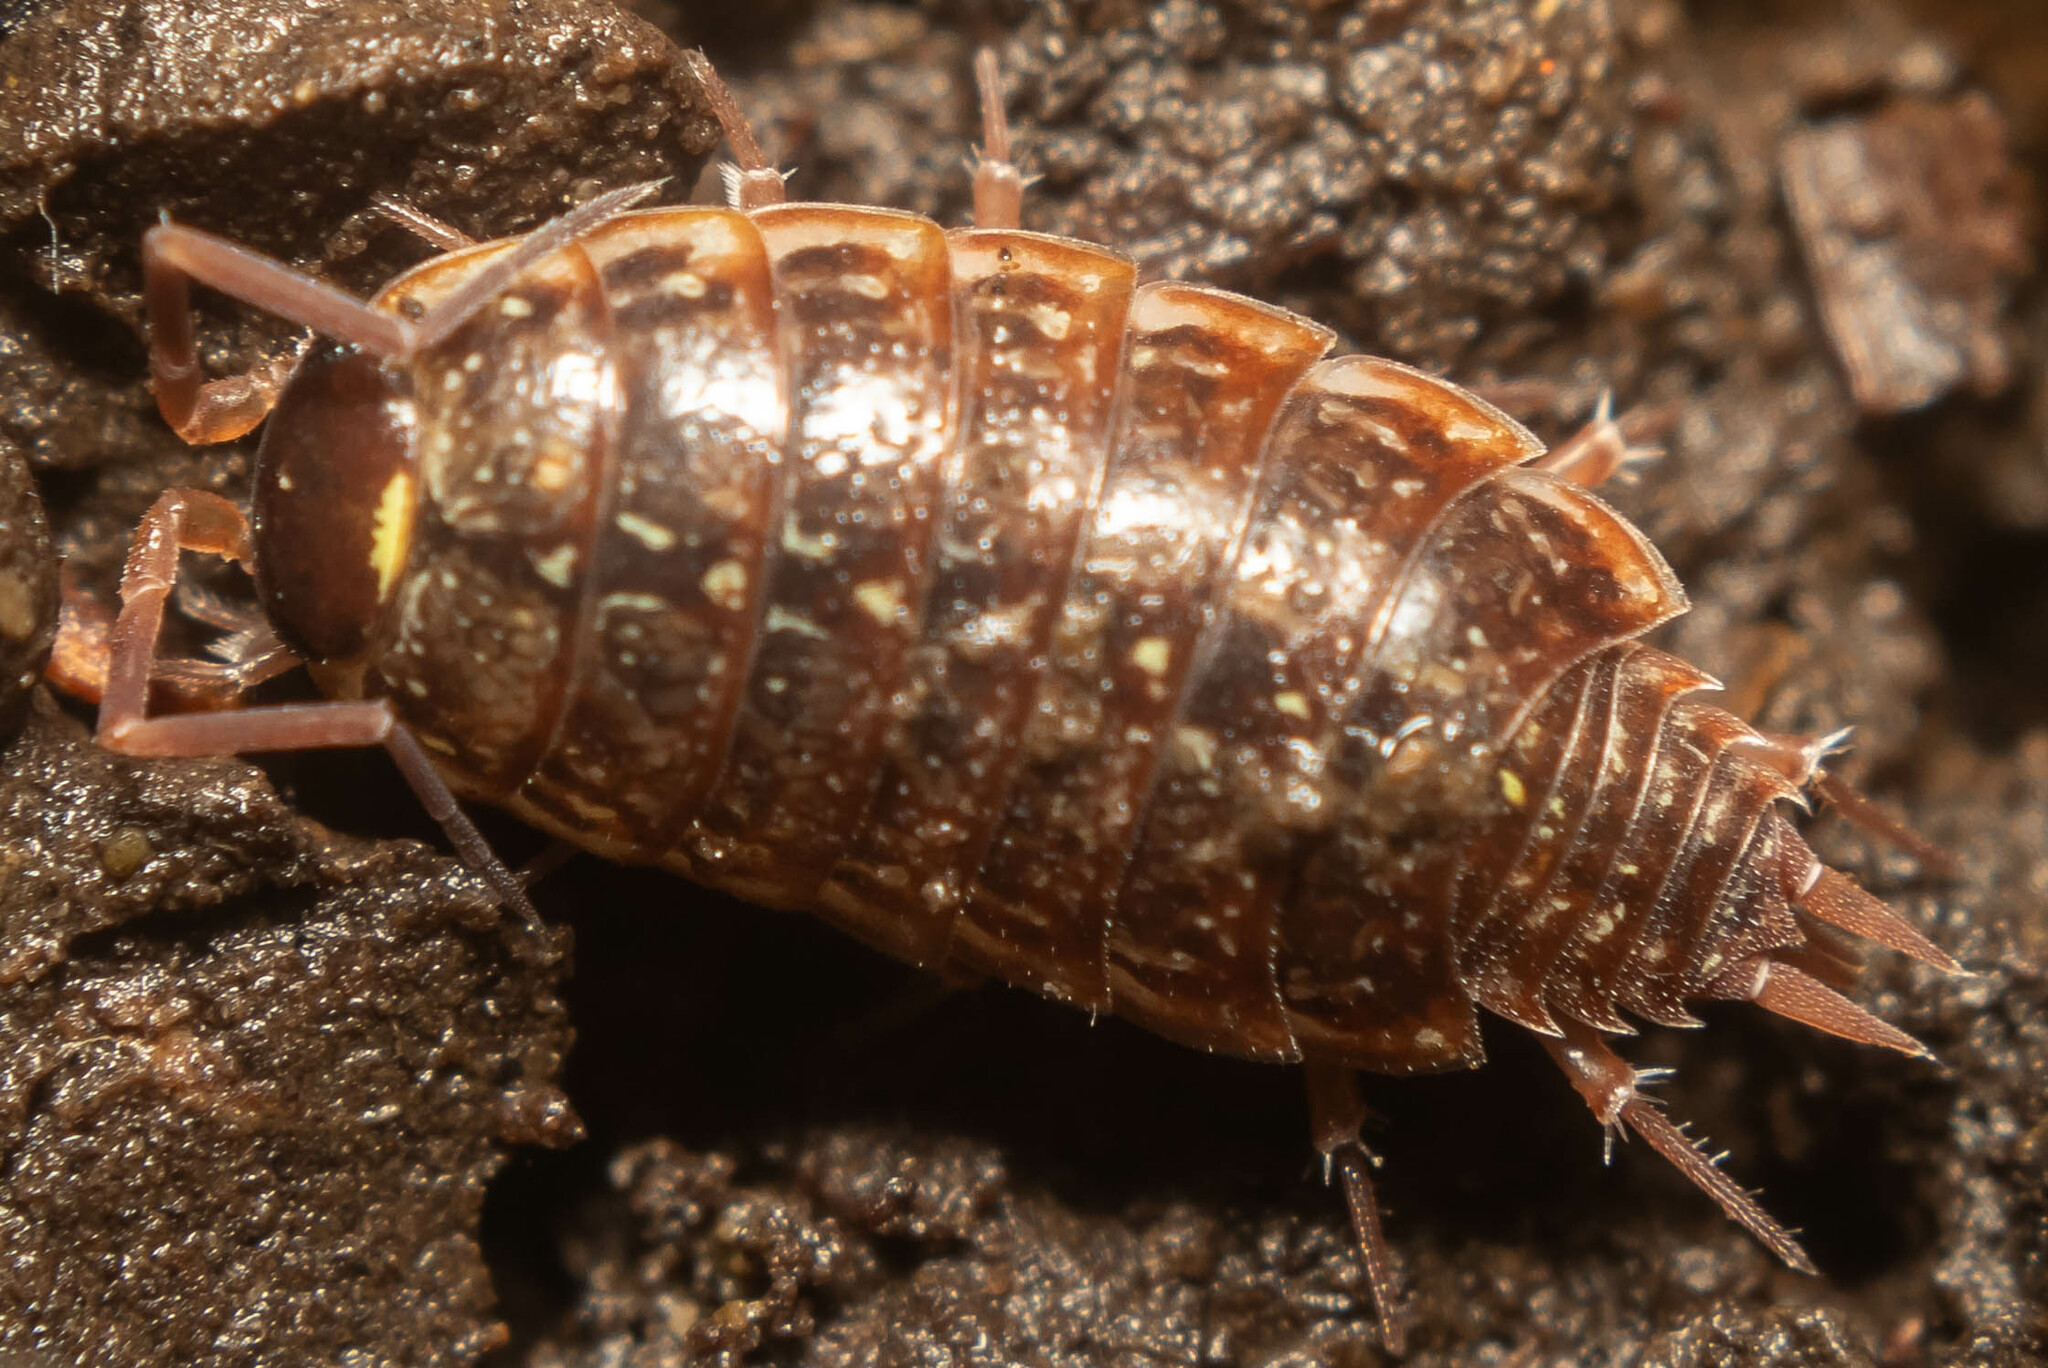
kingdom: Animalia
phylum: Arthropoda
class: Malacostraca
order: Isopoda
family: Philosciidae
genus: Philoscia
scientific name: Philoscia muscorum
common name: Common striped woodlouse
